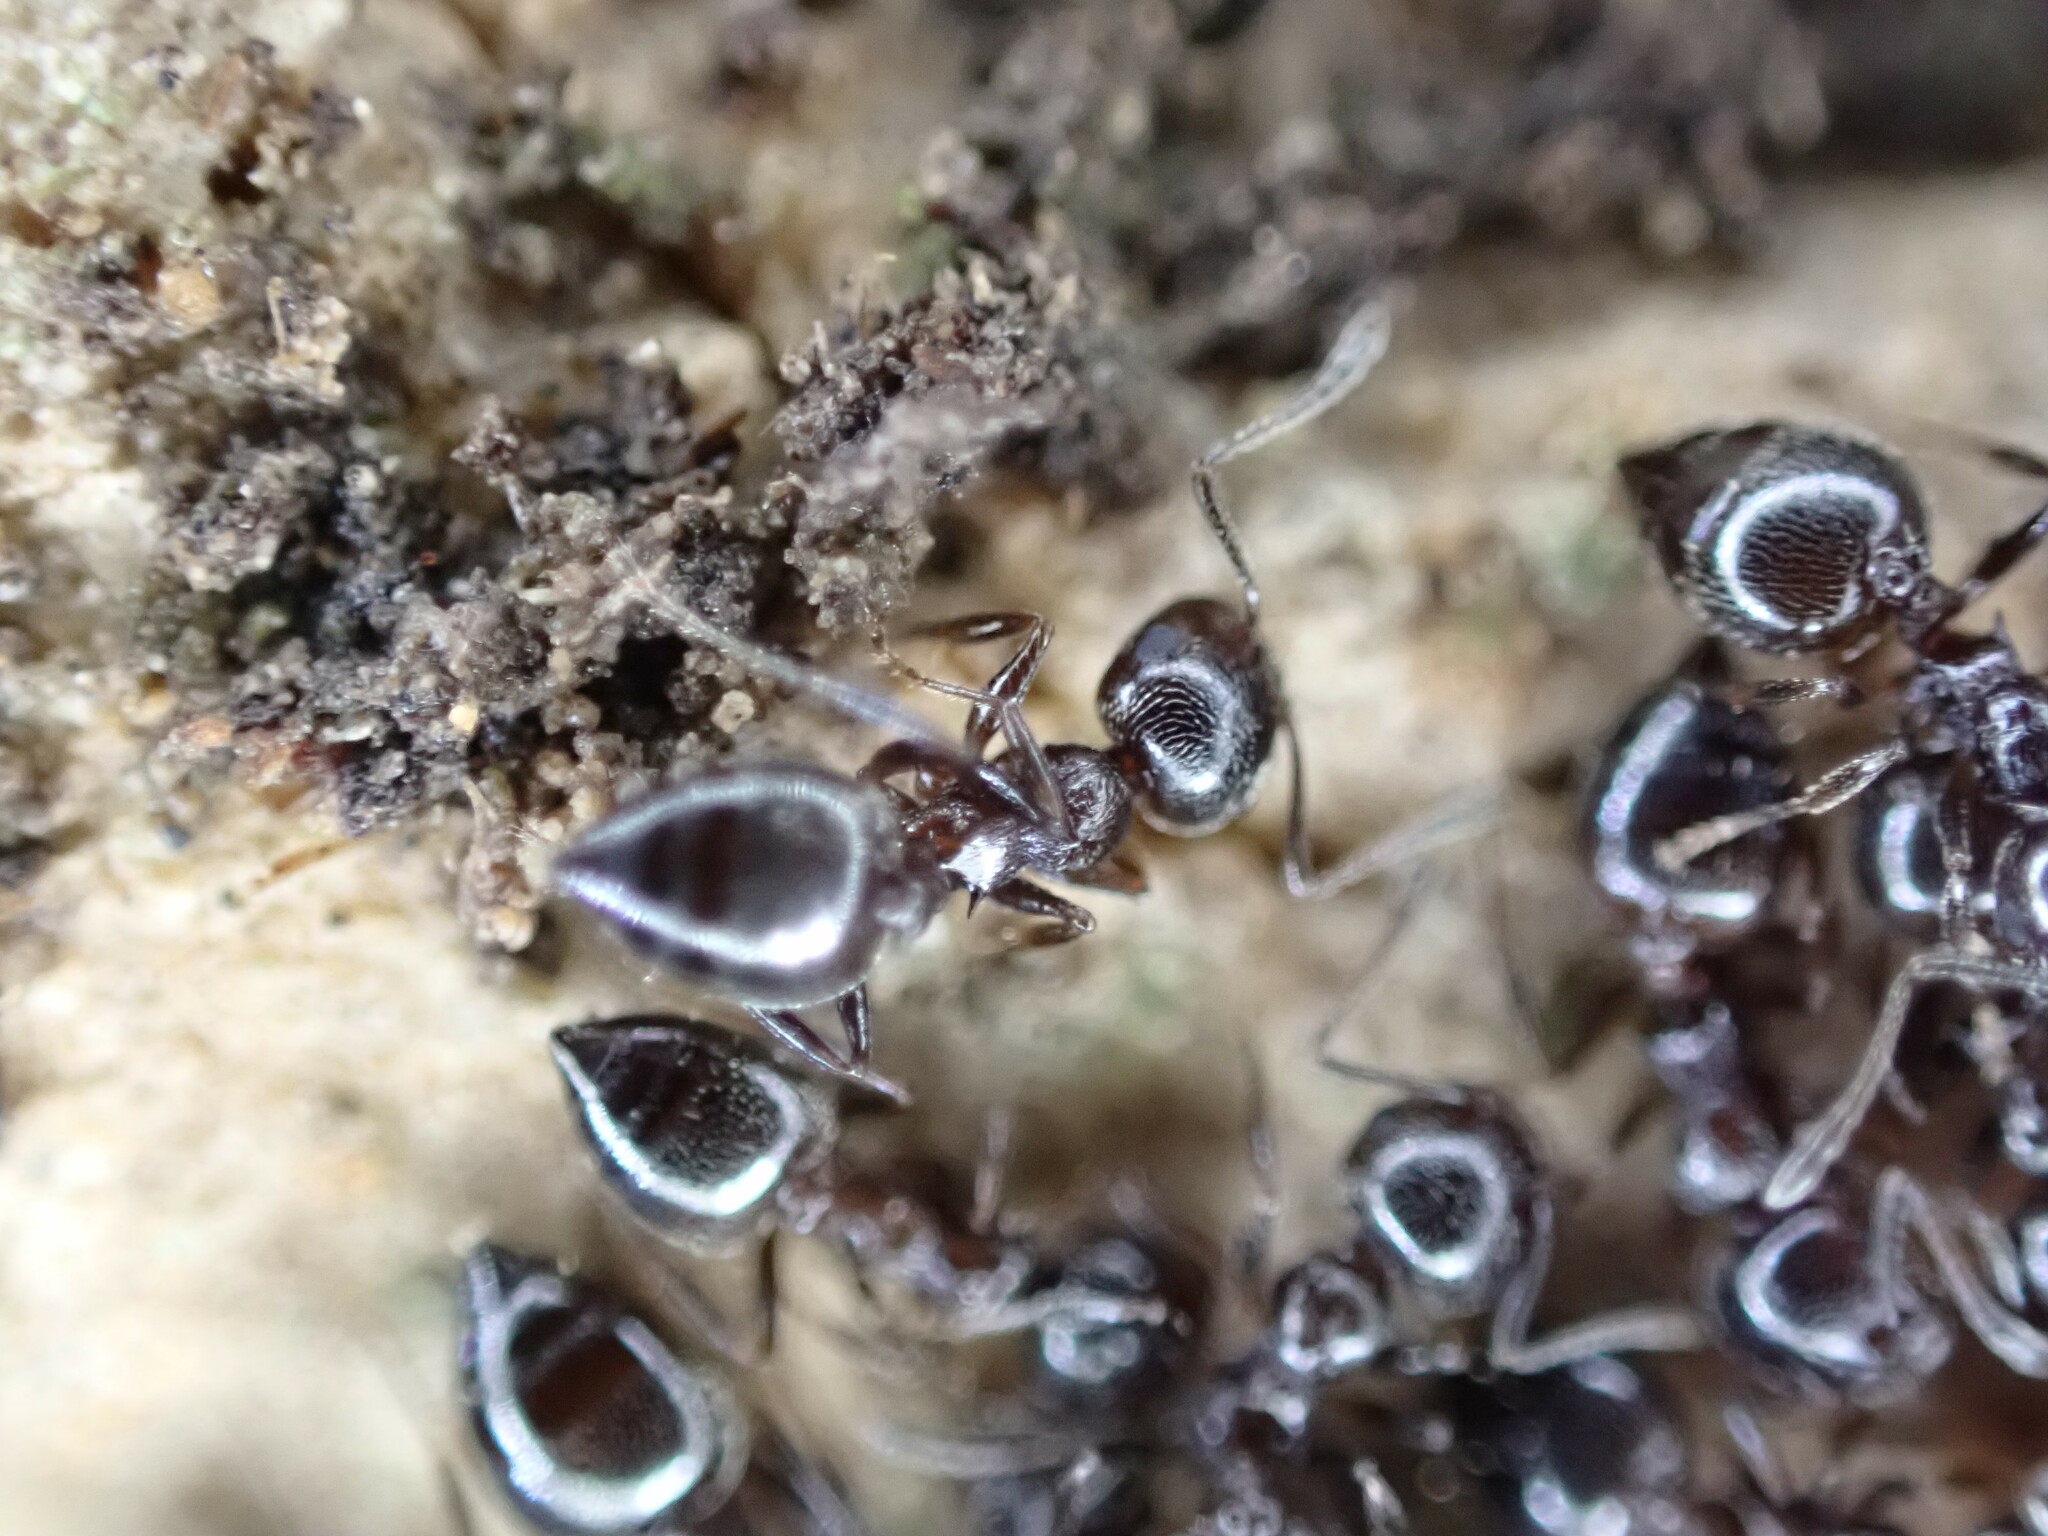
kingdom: Animalia
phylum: Arthropoda
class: Insecta
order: Hymenoptera
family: Formicidae
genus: Crematogaster
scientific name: Crematogaster auberti
